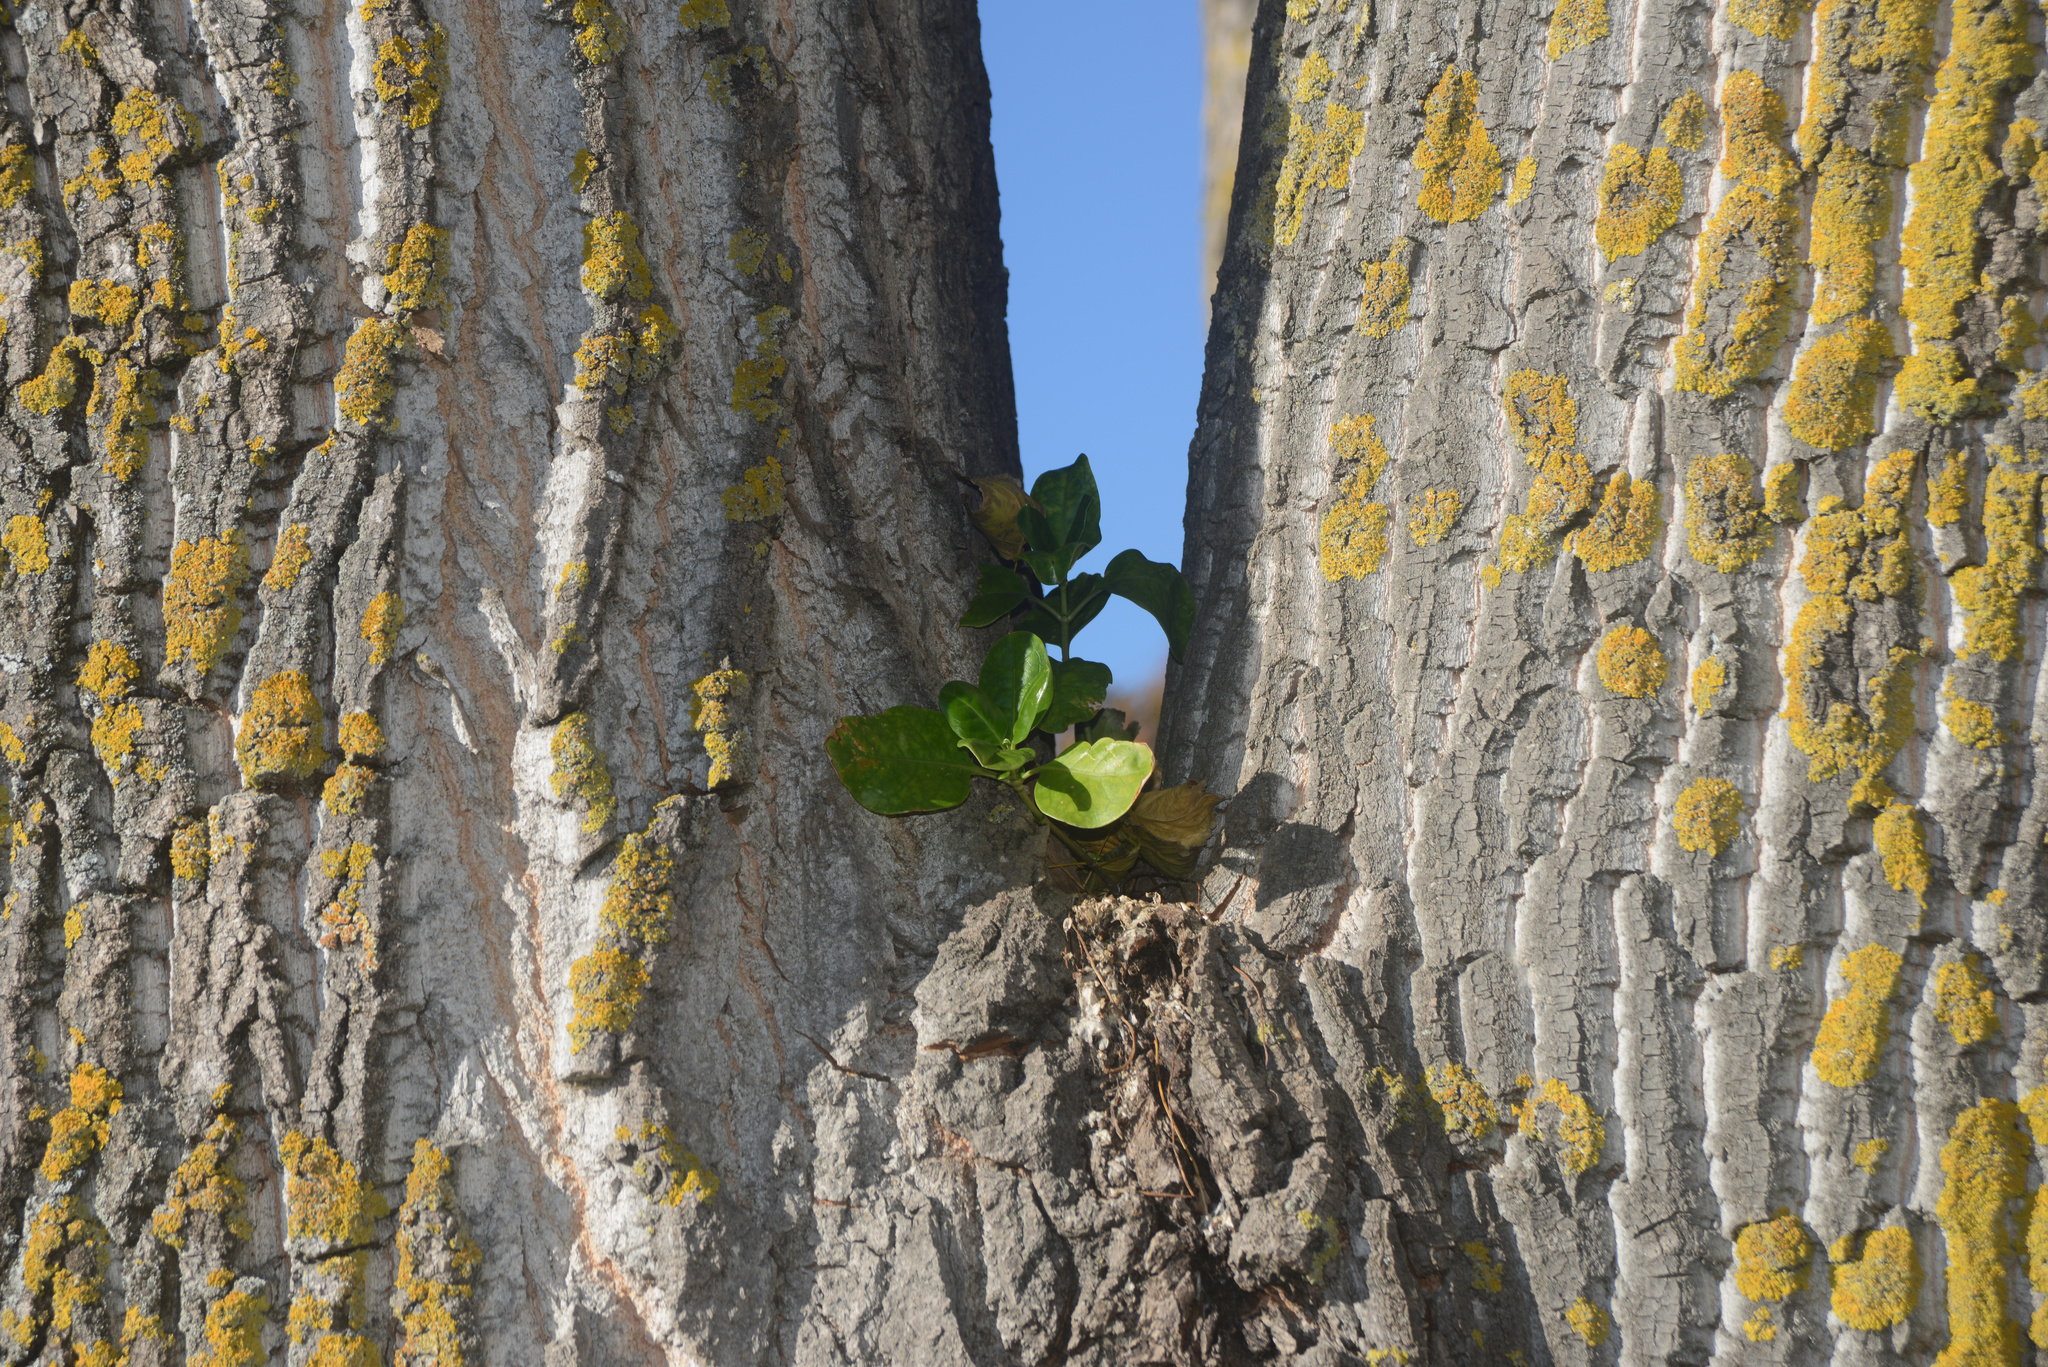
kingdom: Plantae
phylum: Tracheophyta
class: Magnoliopsida
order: Gentianales
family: Rubiaceae
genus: Coprosma
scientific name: Coprosma repens
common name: Tree bedstraw
